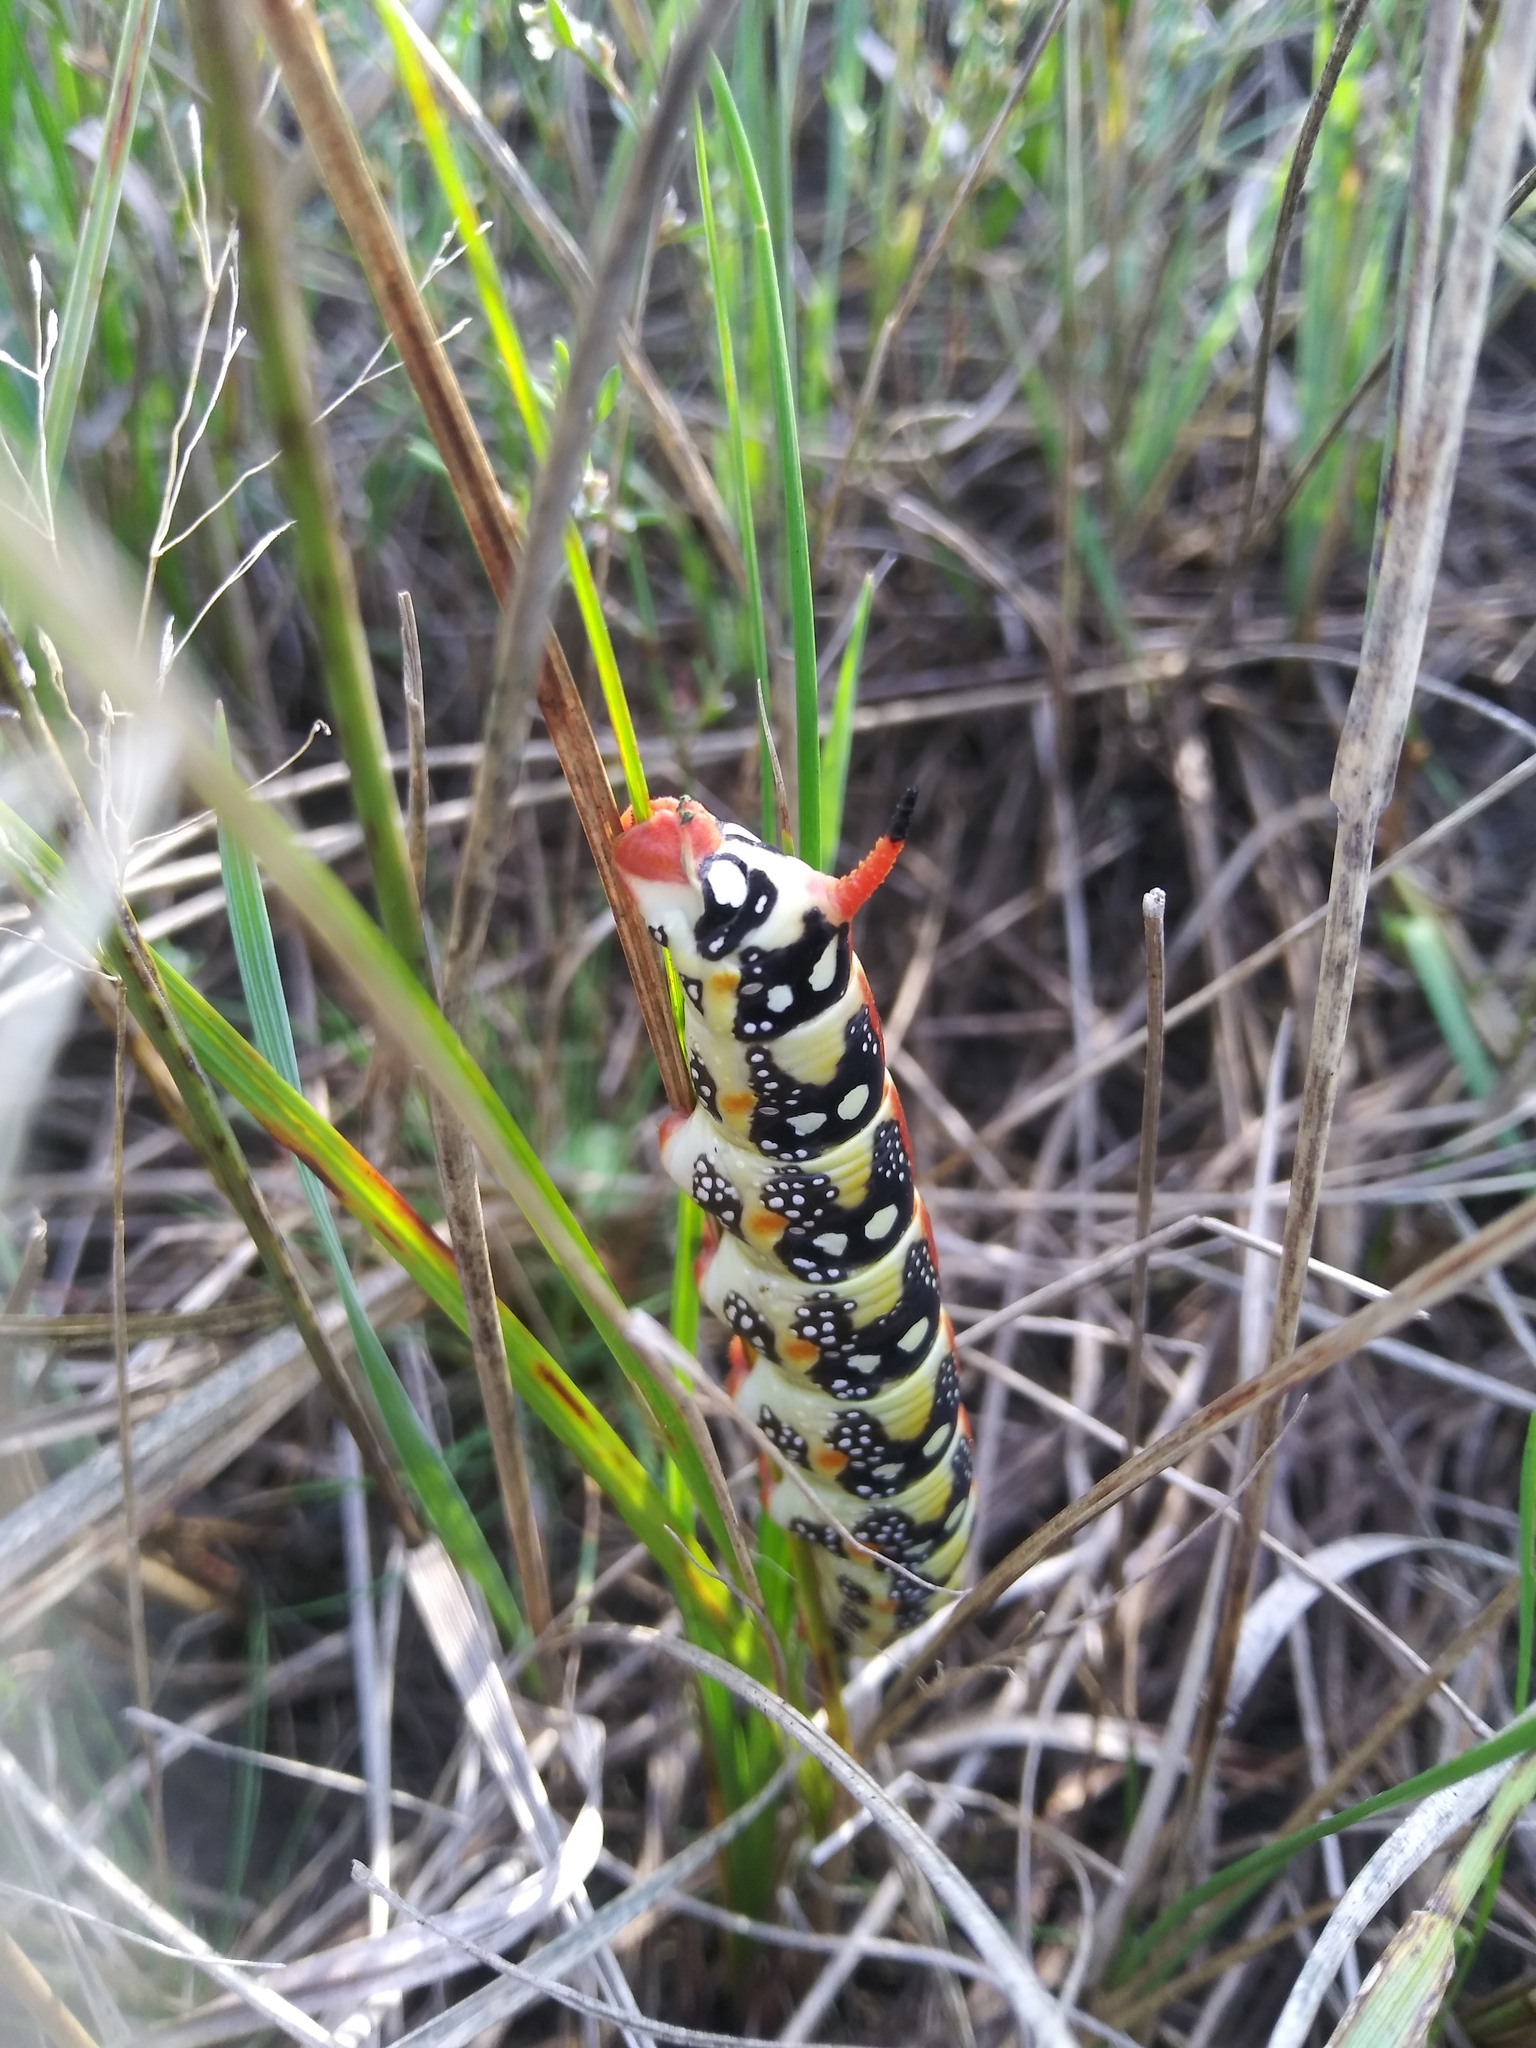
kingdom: Animalia
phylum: Arthropoda
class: Insecta
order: Lepidoptera
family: Sphingidae
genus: Hyles
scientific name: Hyles euphorbiae
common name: Spurge hawk-moth
